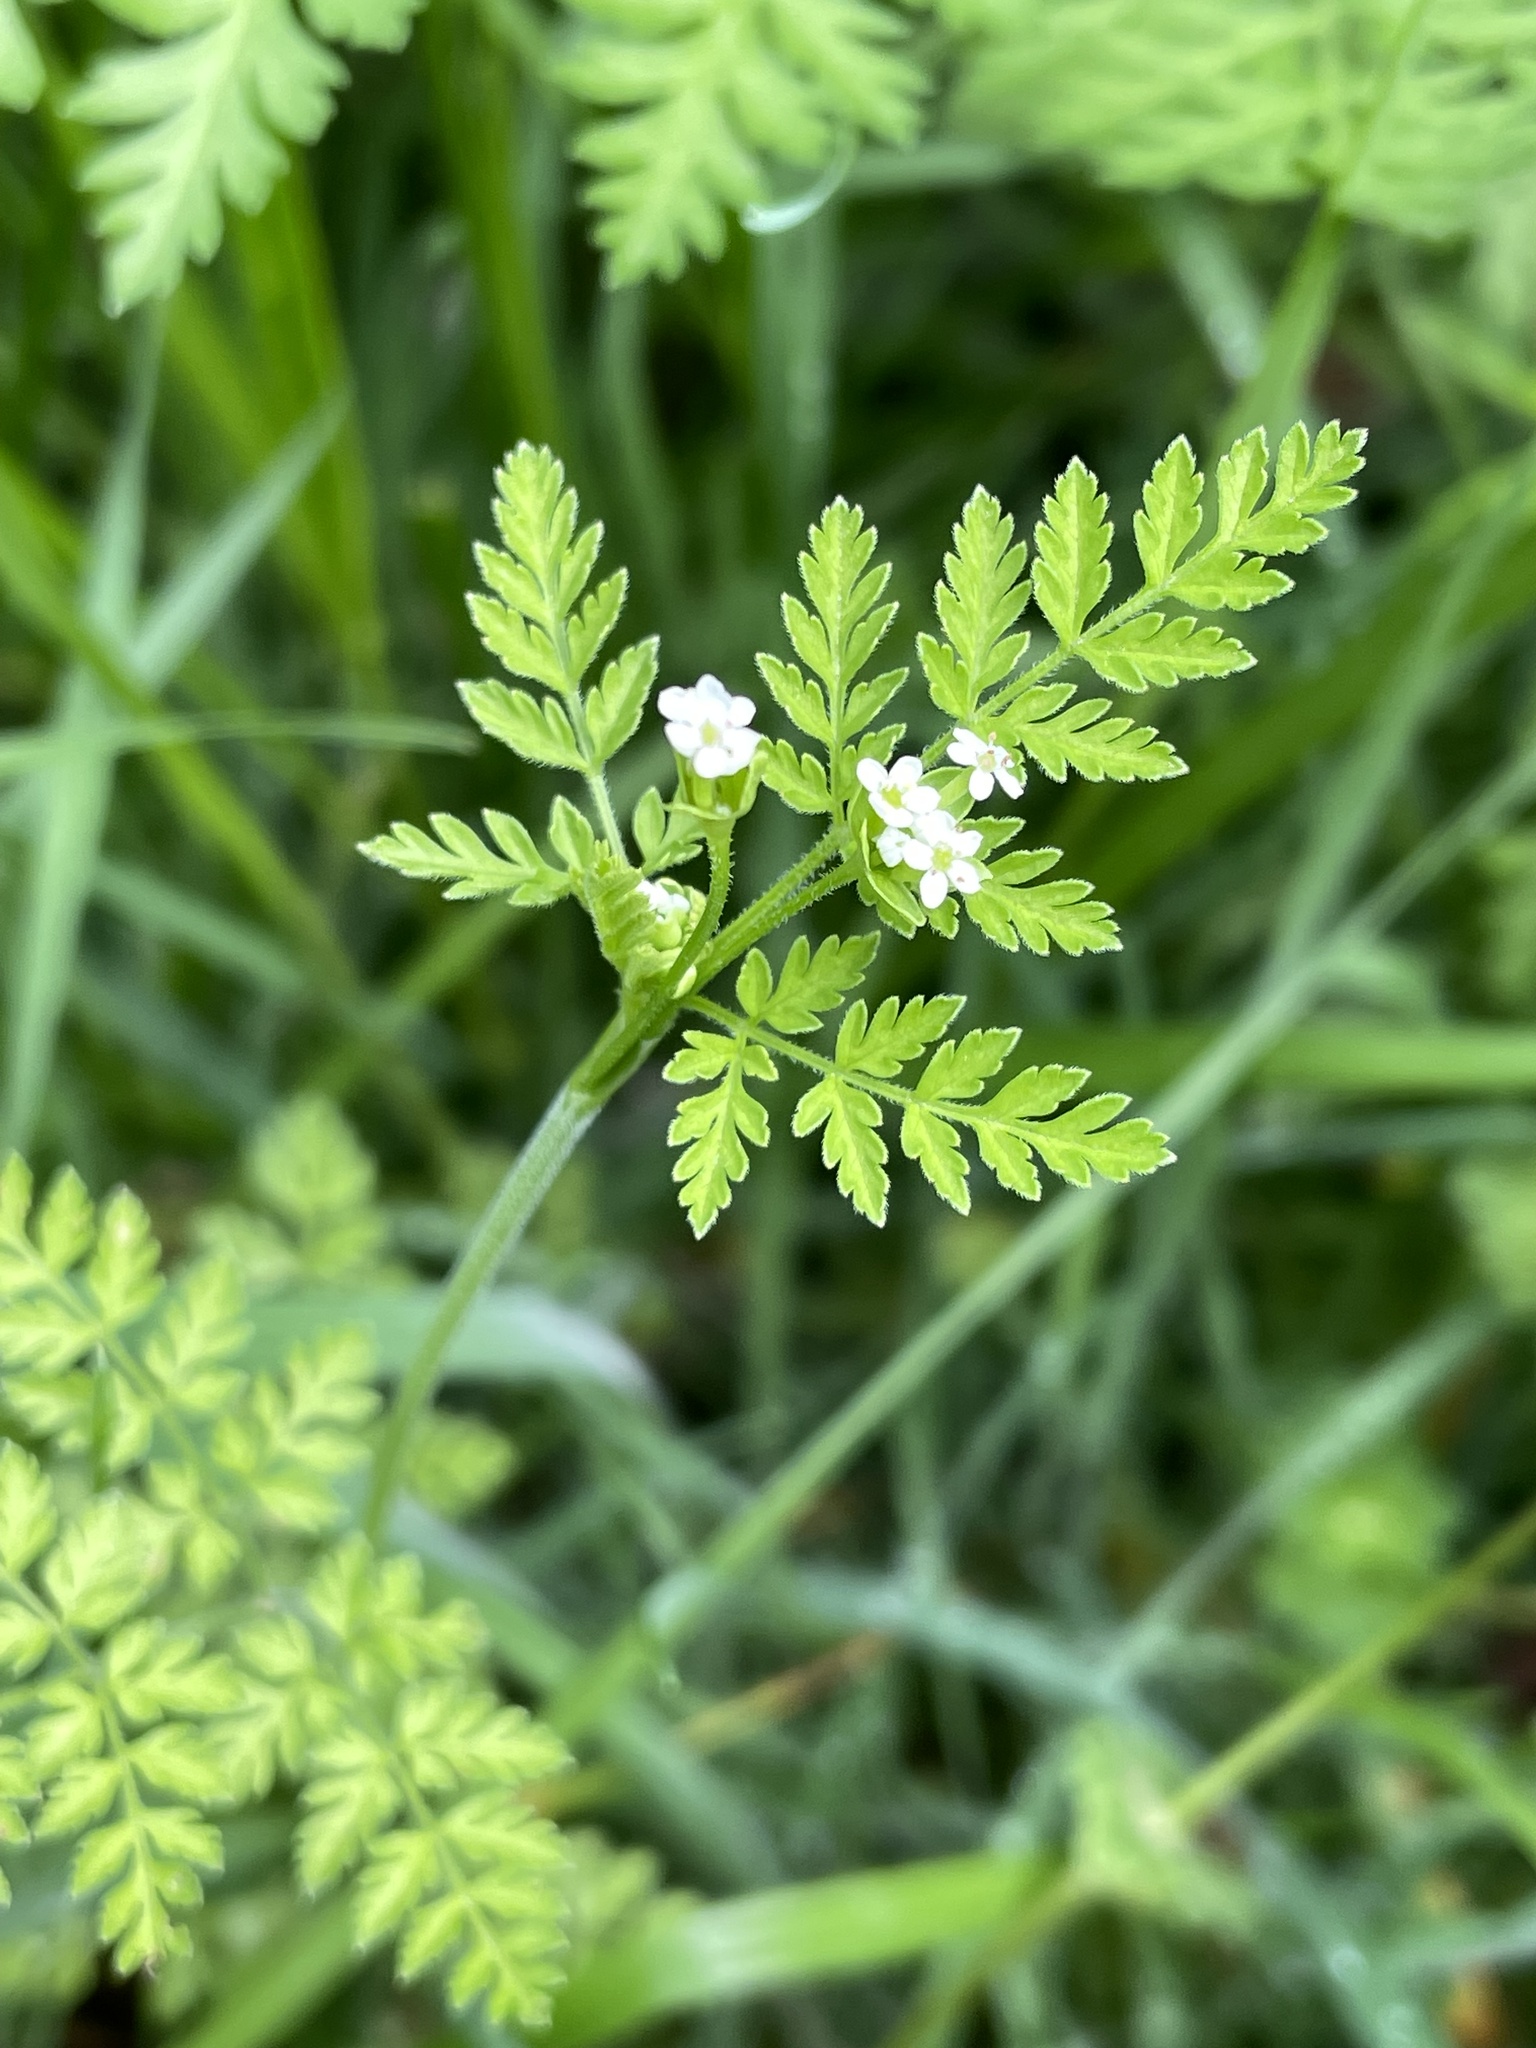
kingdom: Plantae
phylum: Tracheophyta
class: Magnoliopsida
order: Apiales
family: Apiaceae
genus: Chaerophyllum
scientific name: Chaerophyllum tainturieri
